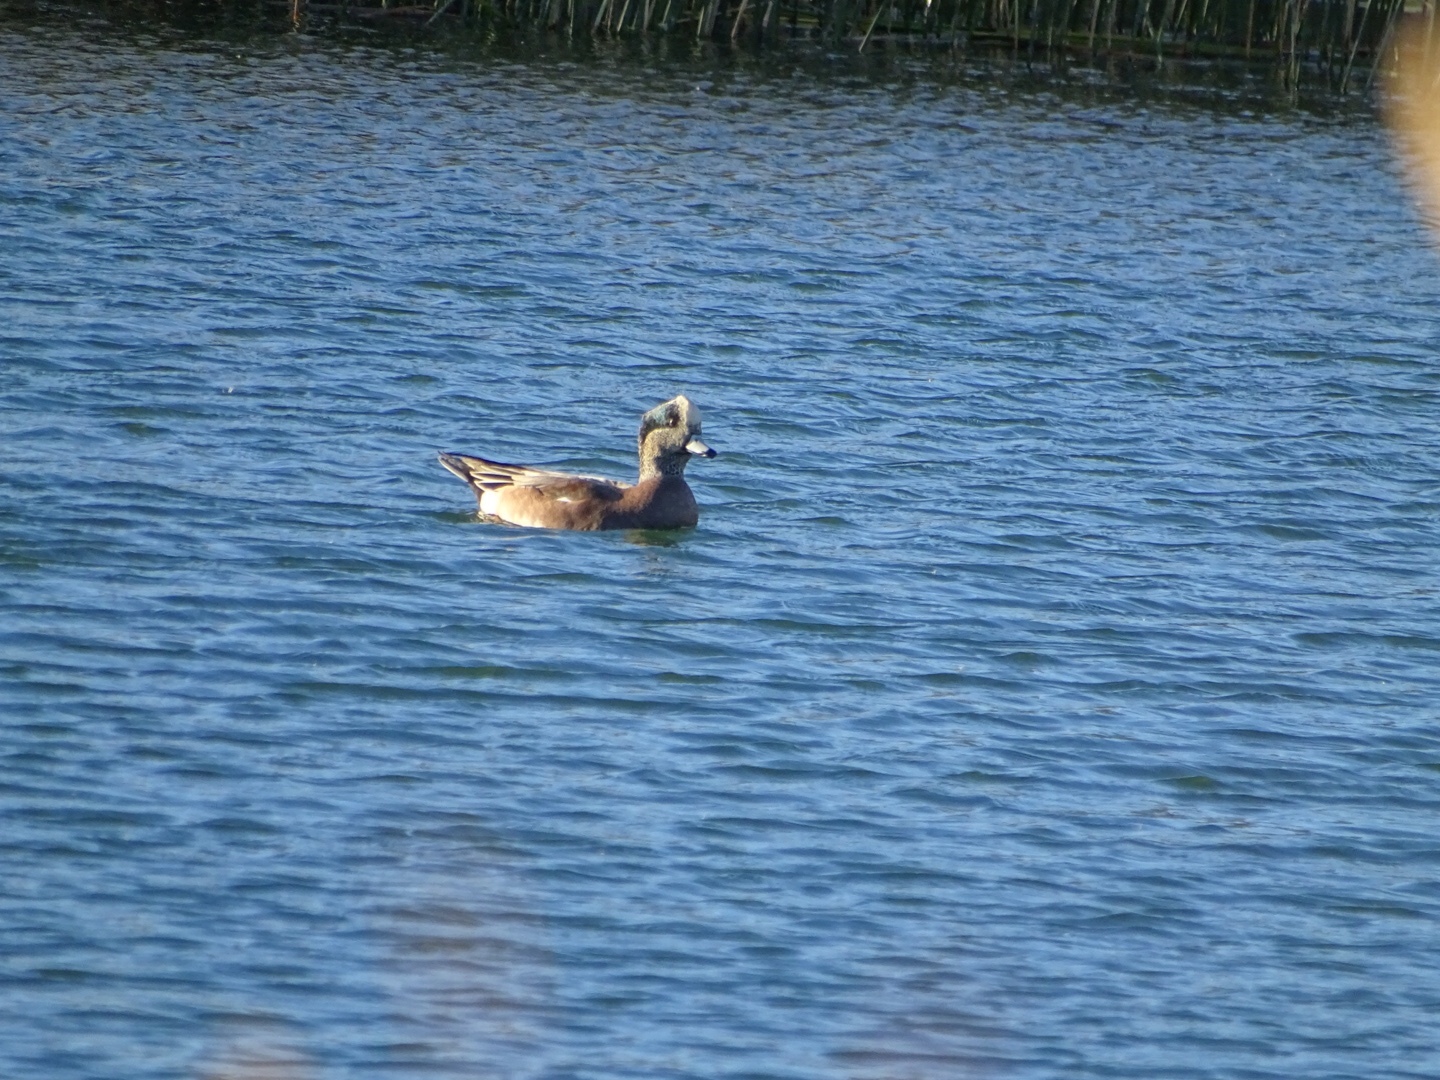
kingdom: Animalia
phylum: Chordata
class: Aves
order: Anseriformes
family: Anatidae
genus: Mareca
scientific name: Mareca americana
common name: American wigeon
